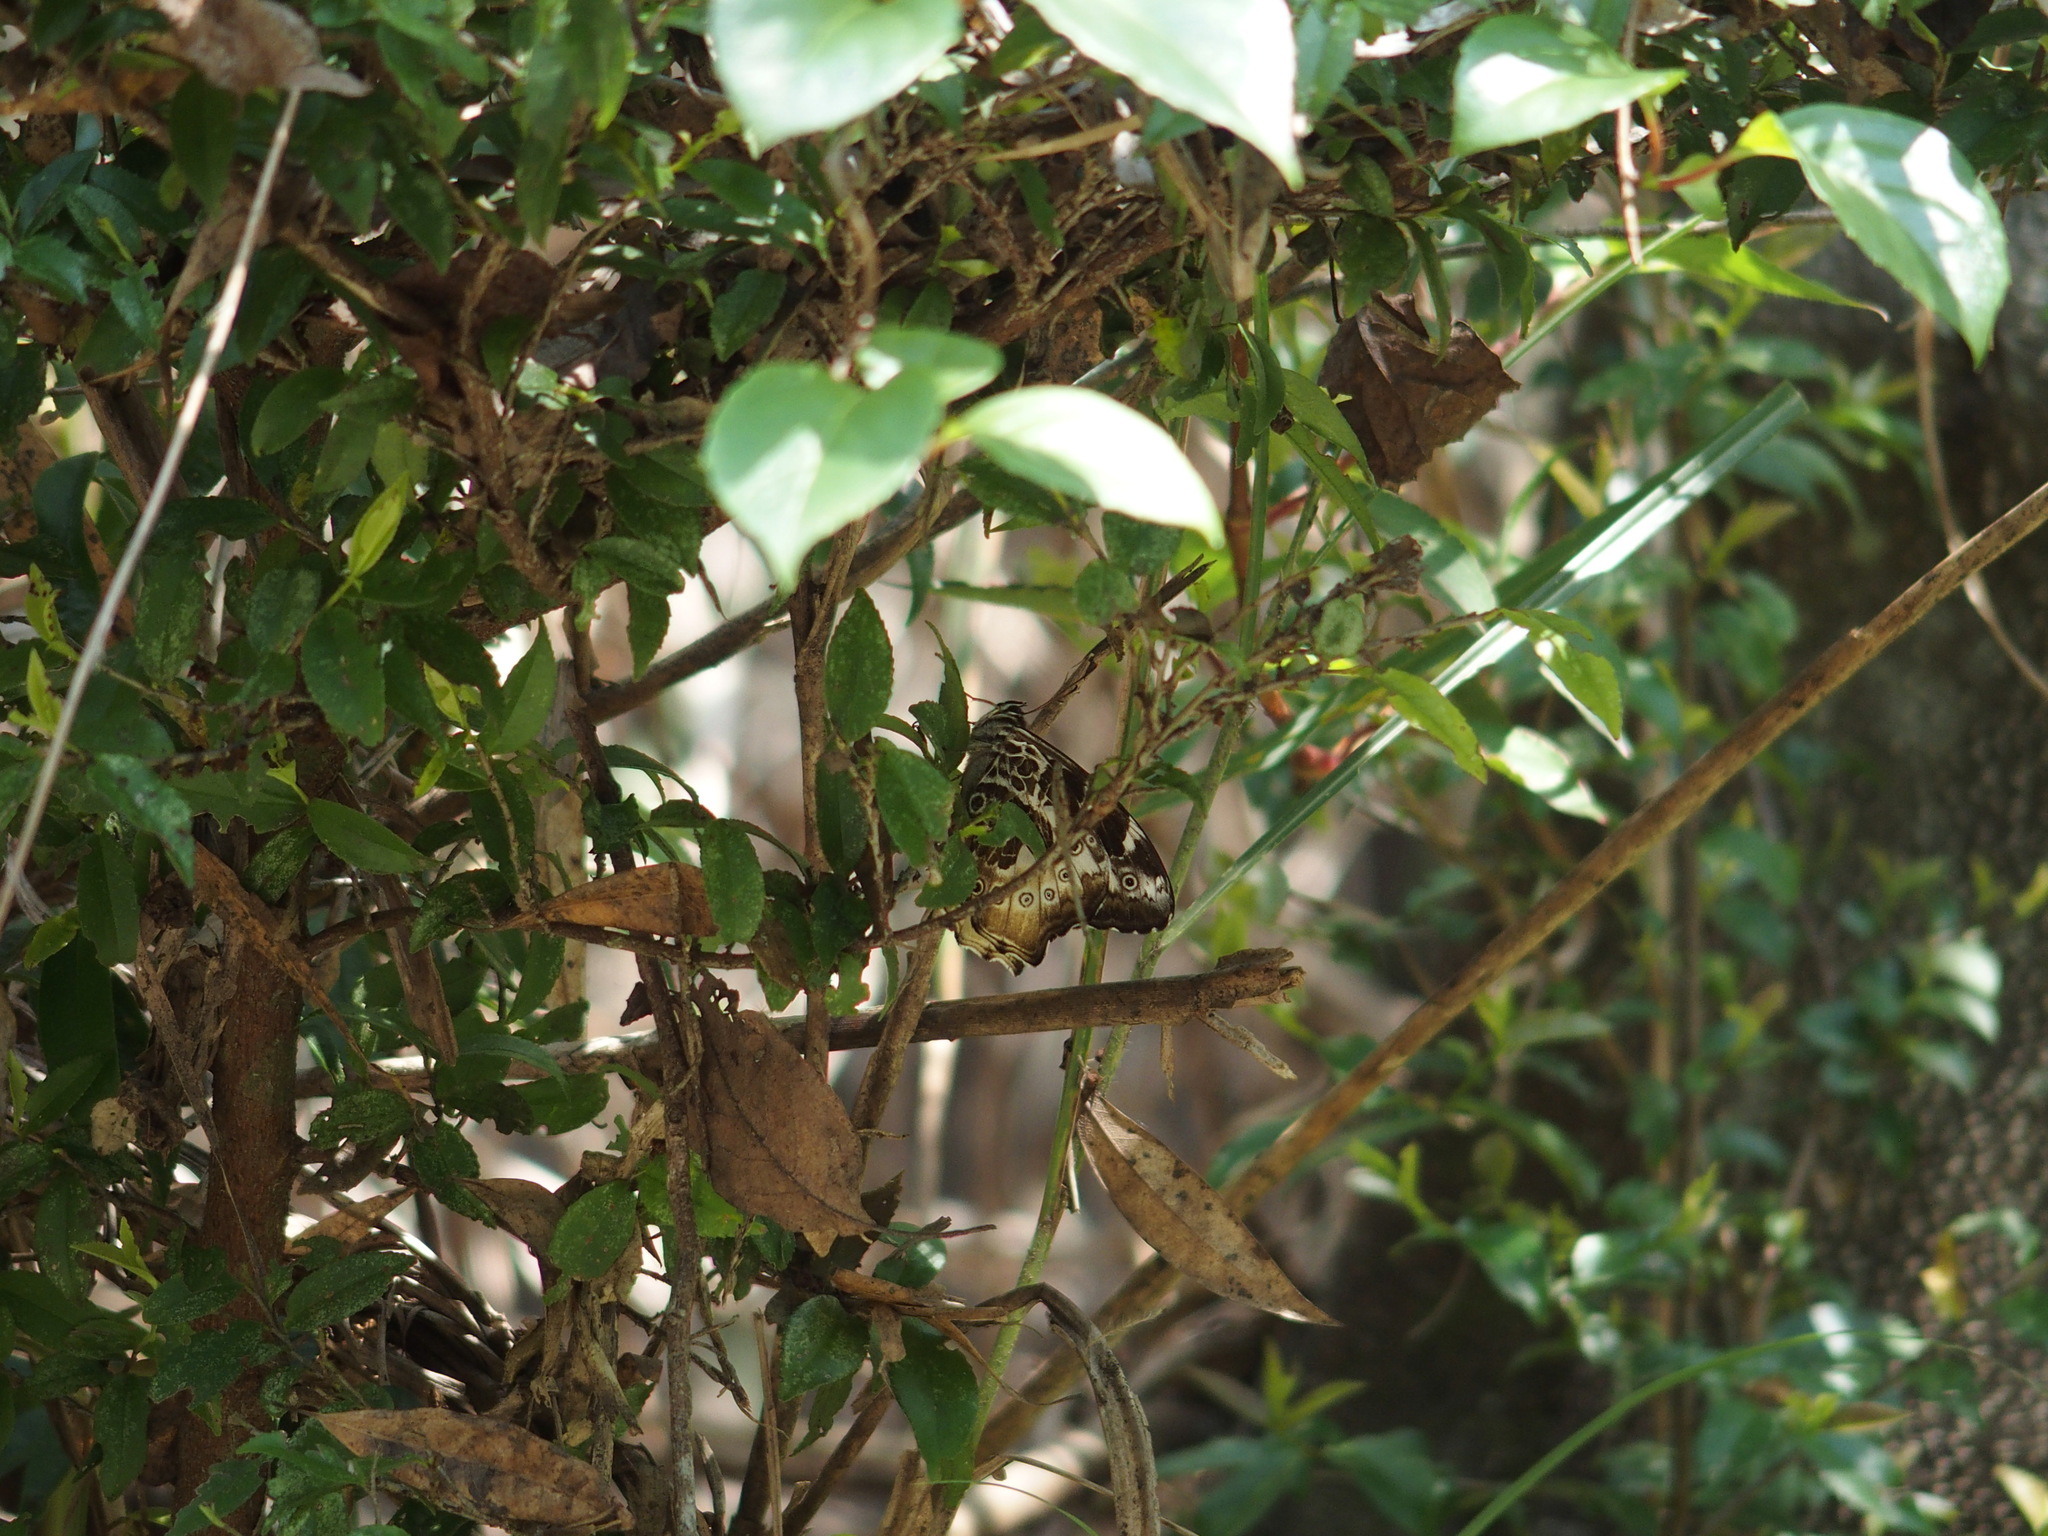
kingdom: Animalia
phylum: Arthropoda
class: Insecta
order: Lepidoptera
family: Nymphalidae
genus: Neope
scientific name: Neope armandii
